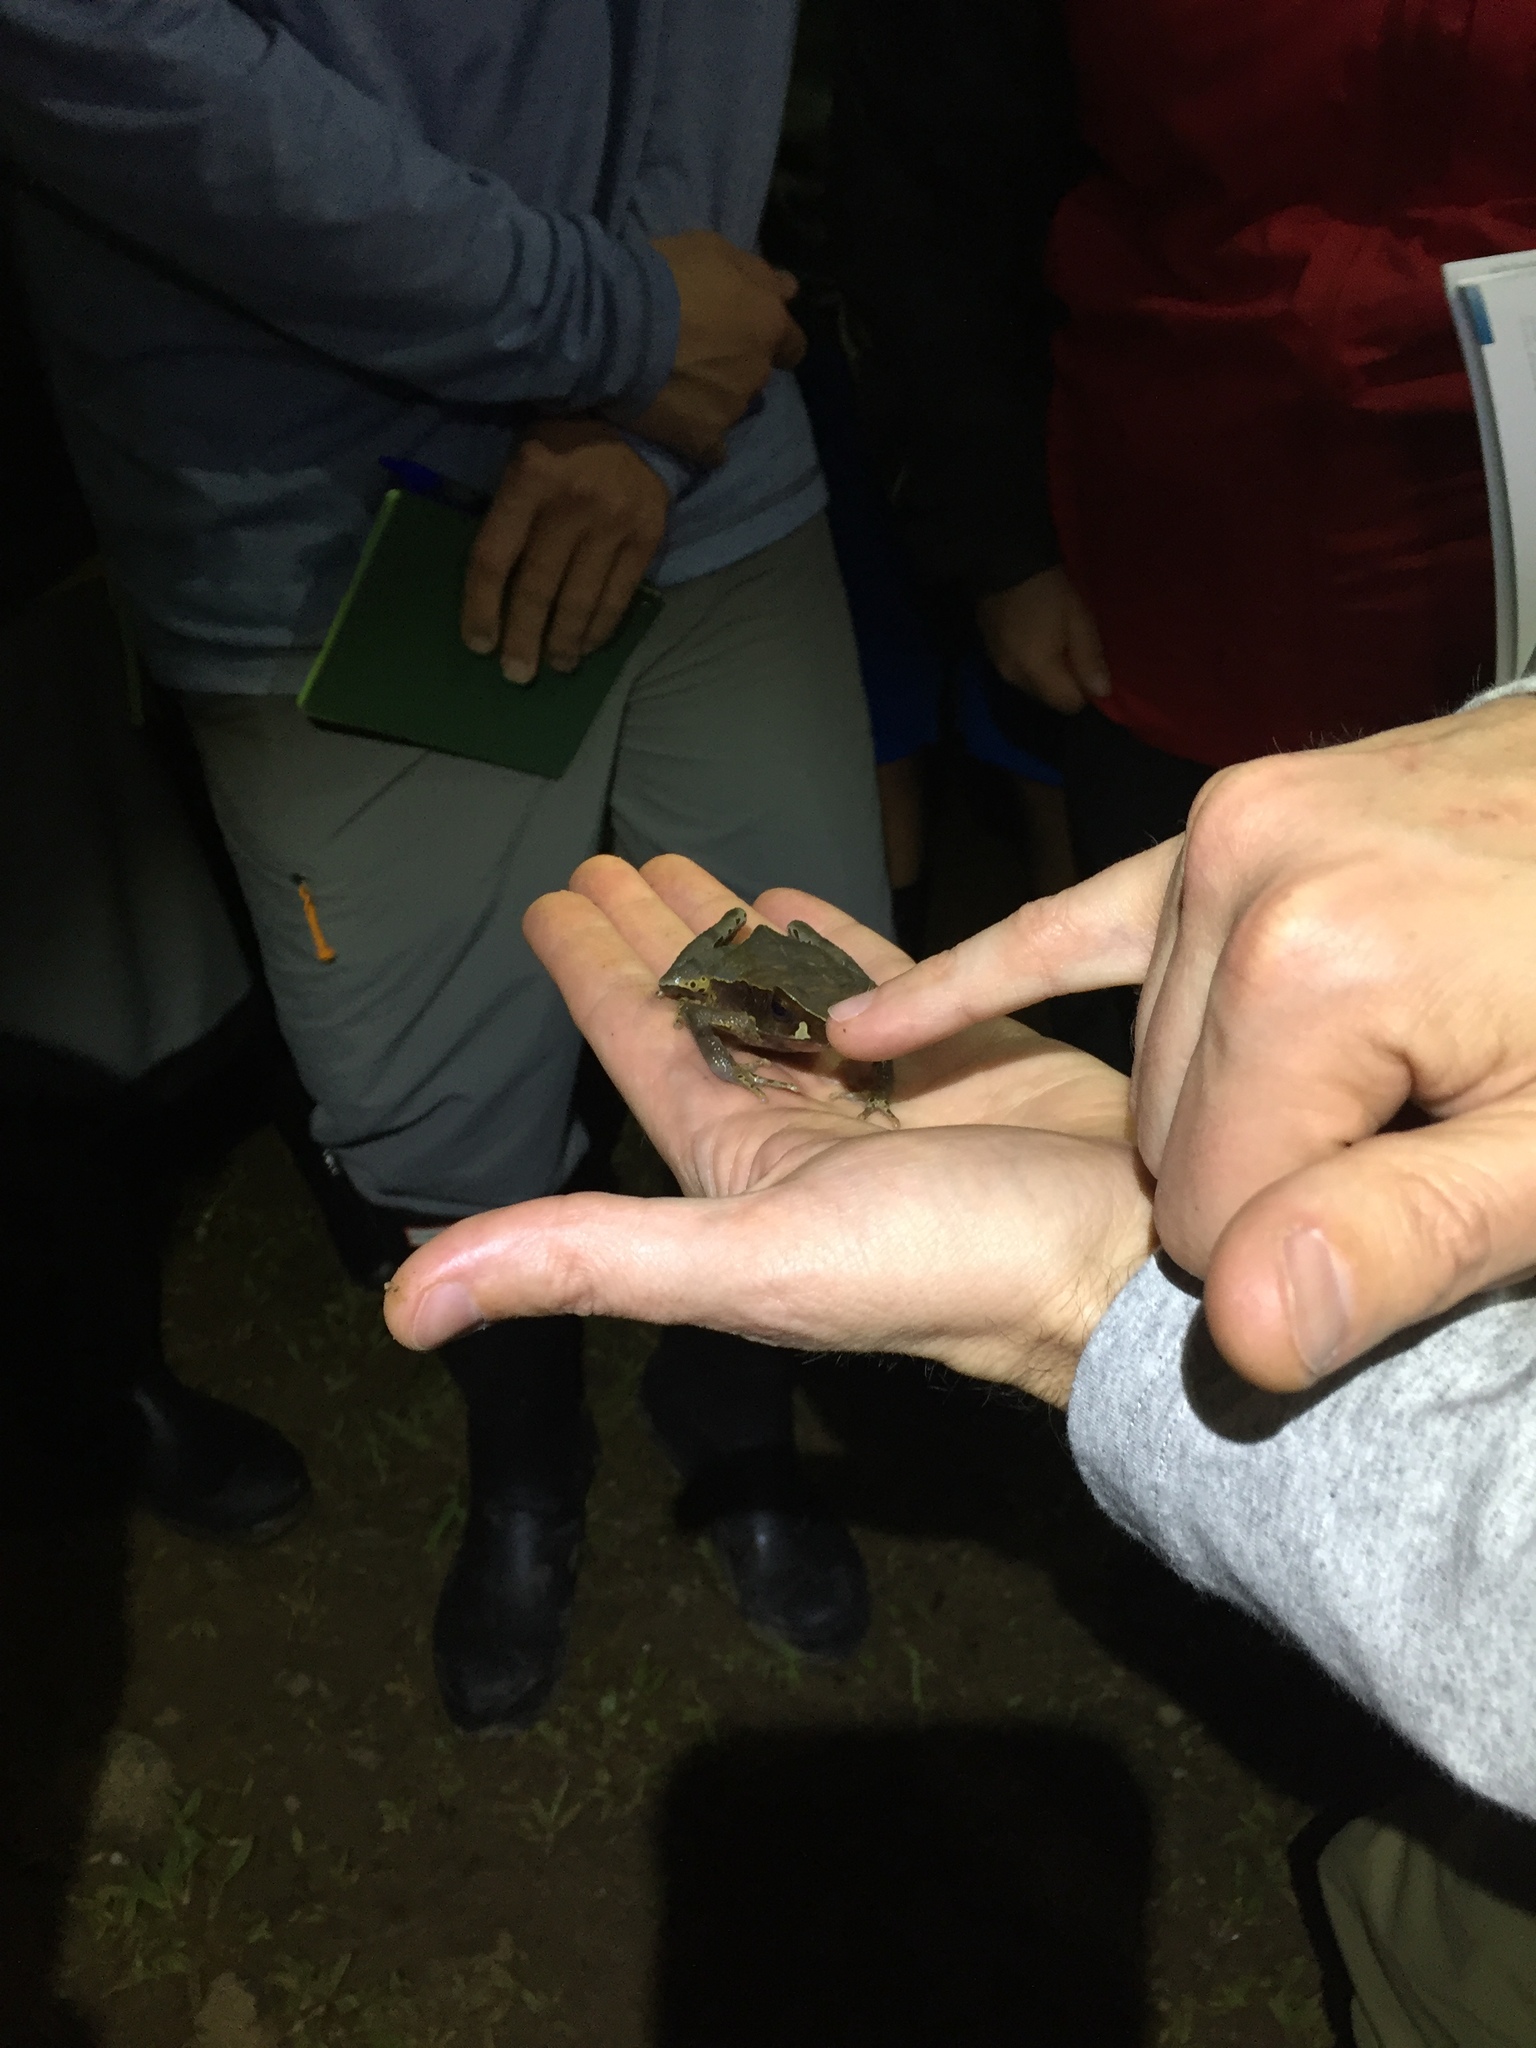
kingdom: Animalia
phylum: Chordata
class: Amphibia
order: Anura
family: Bufonidae
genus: Rhaebo
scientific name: Rhaebo haematiticus
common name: Truando toad
